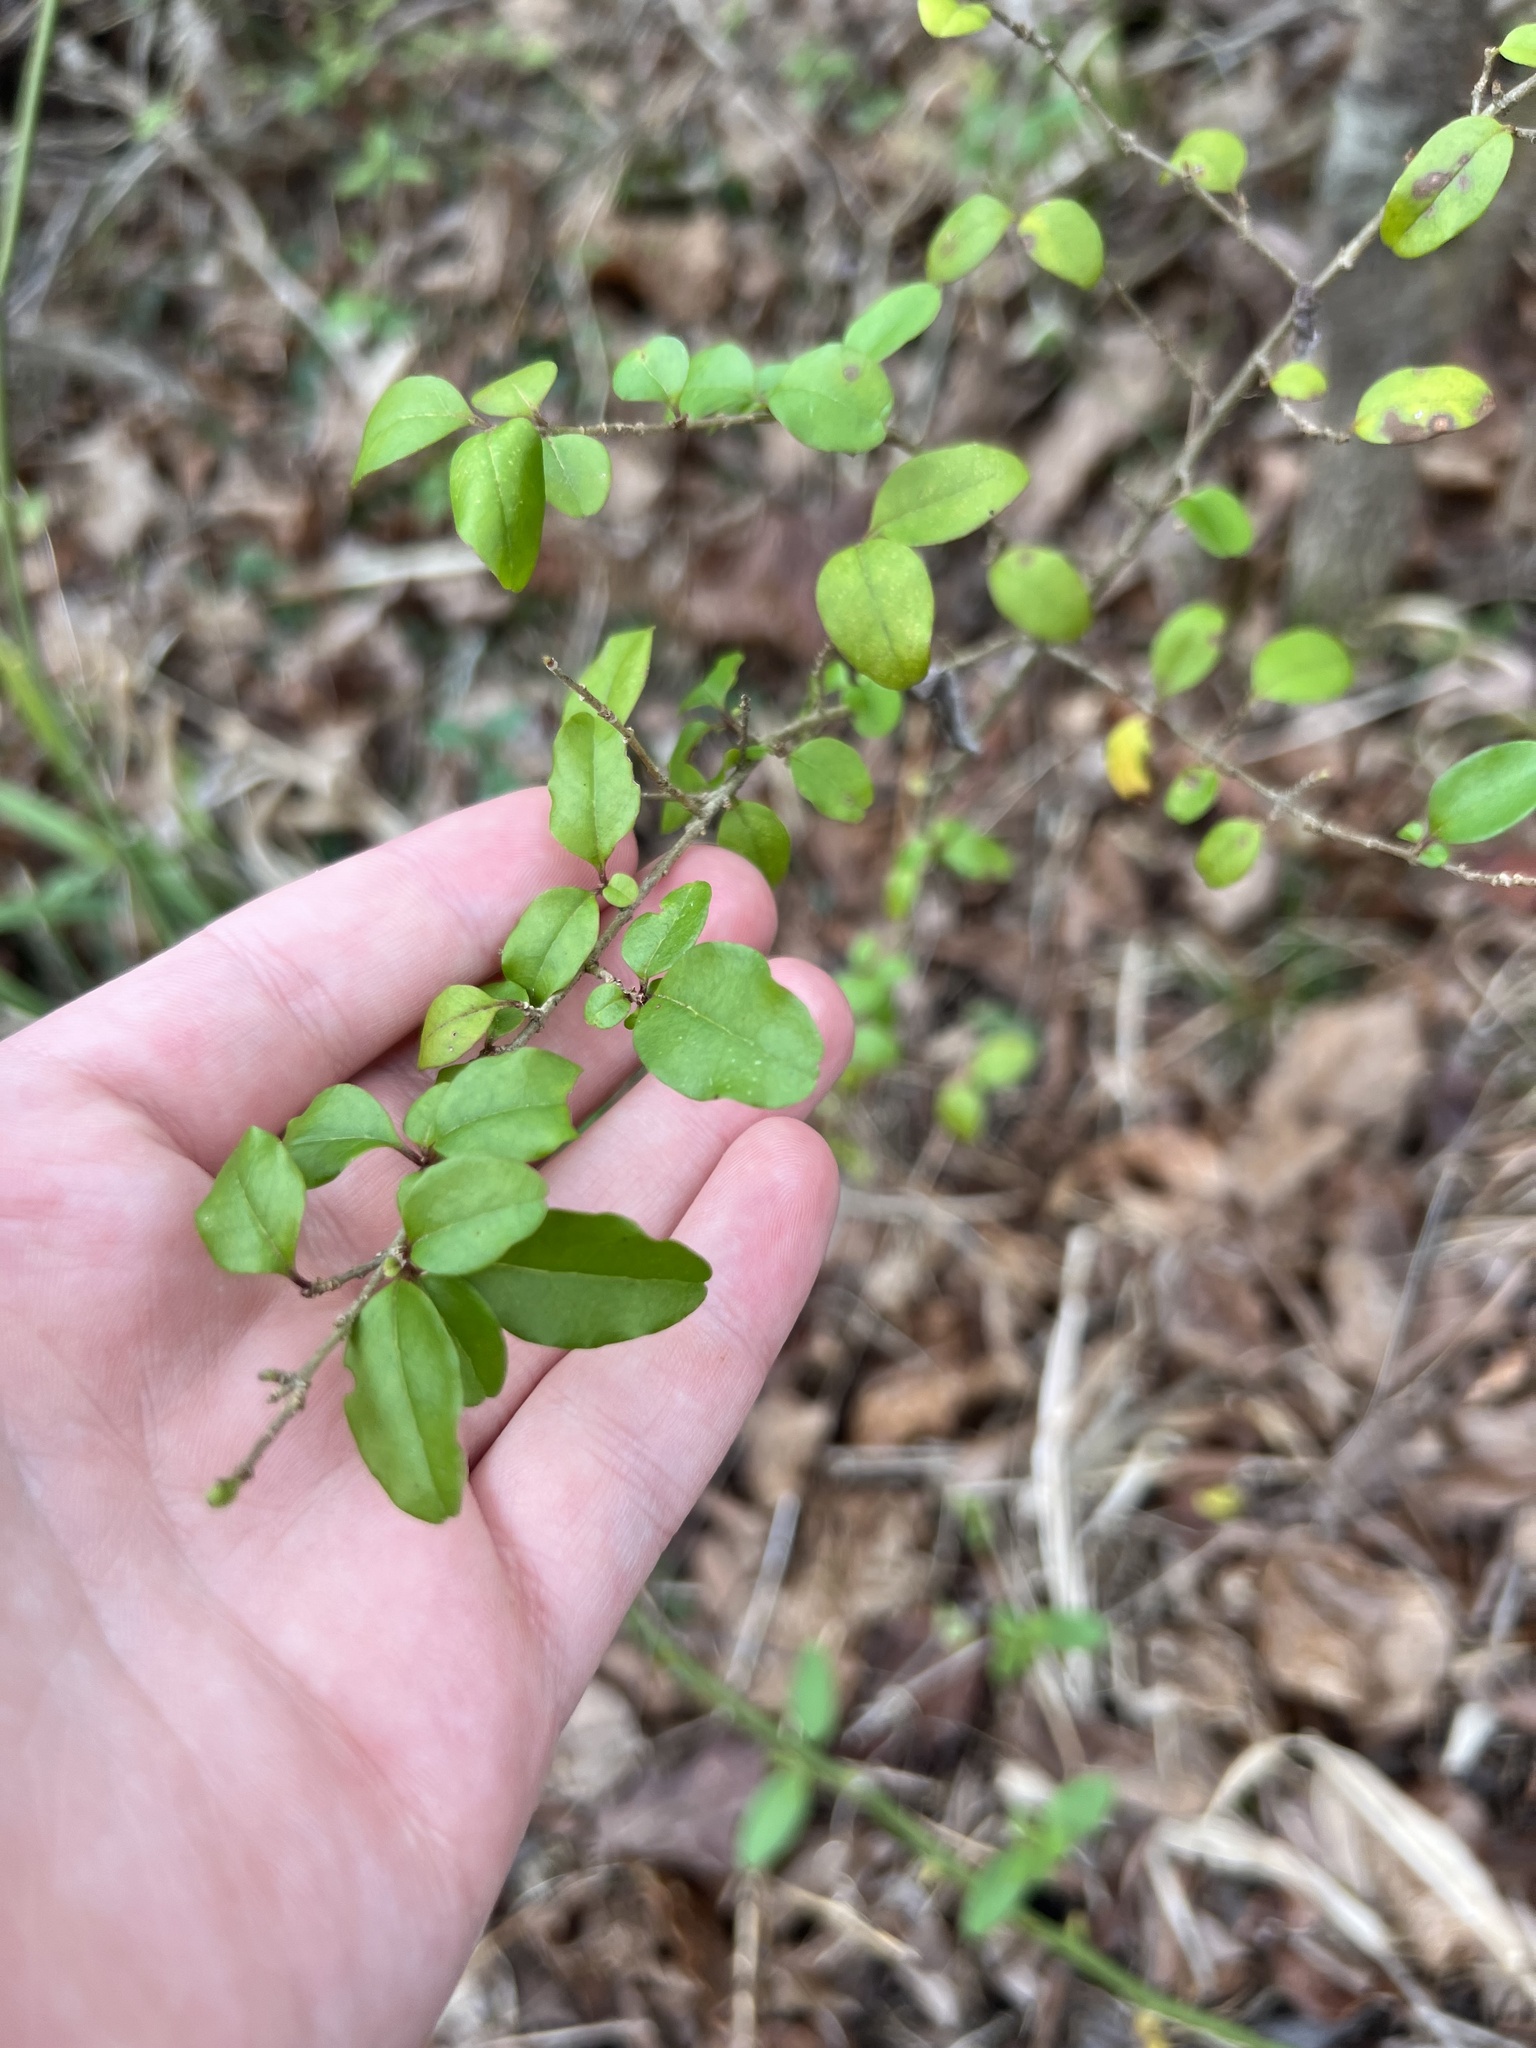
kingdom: Plantae
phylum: Tracheophyta
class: Magnoliopsida
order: Lamiales
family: Oleaceae
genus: Ligustrum
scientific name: Ligustrum sinense
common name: Chinese privet
